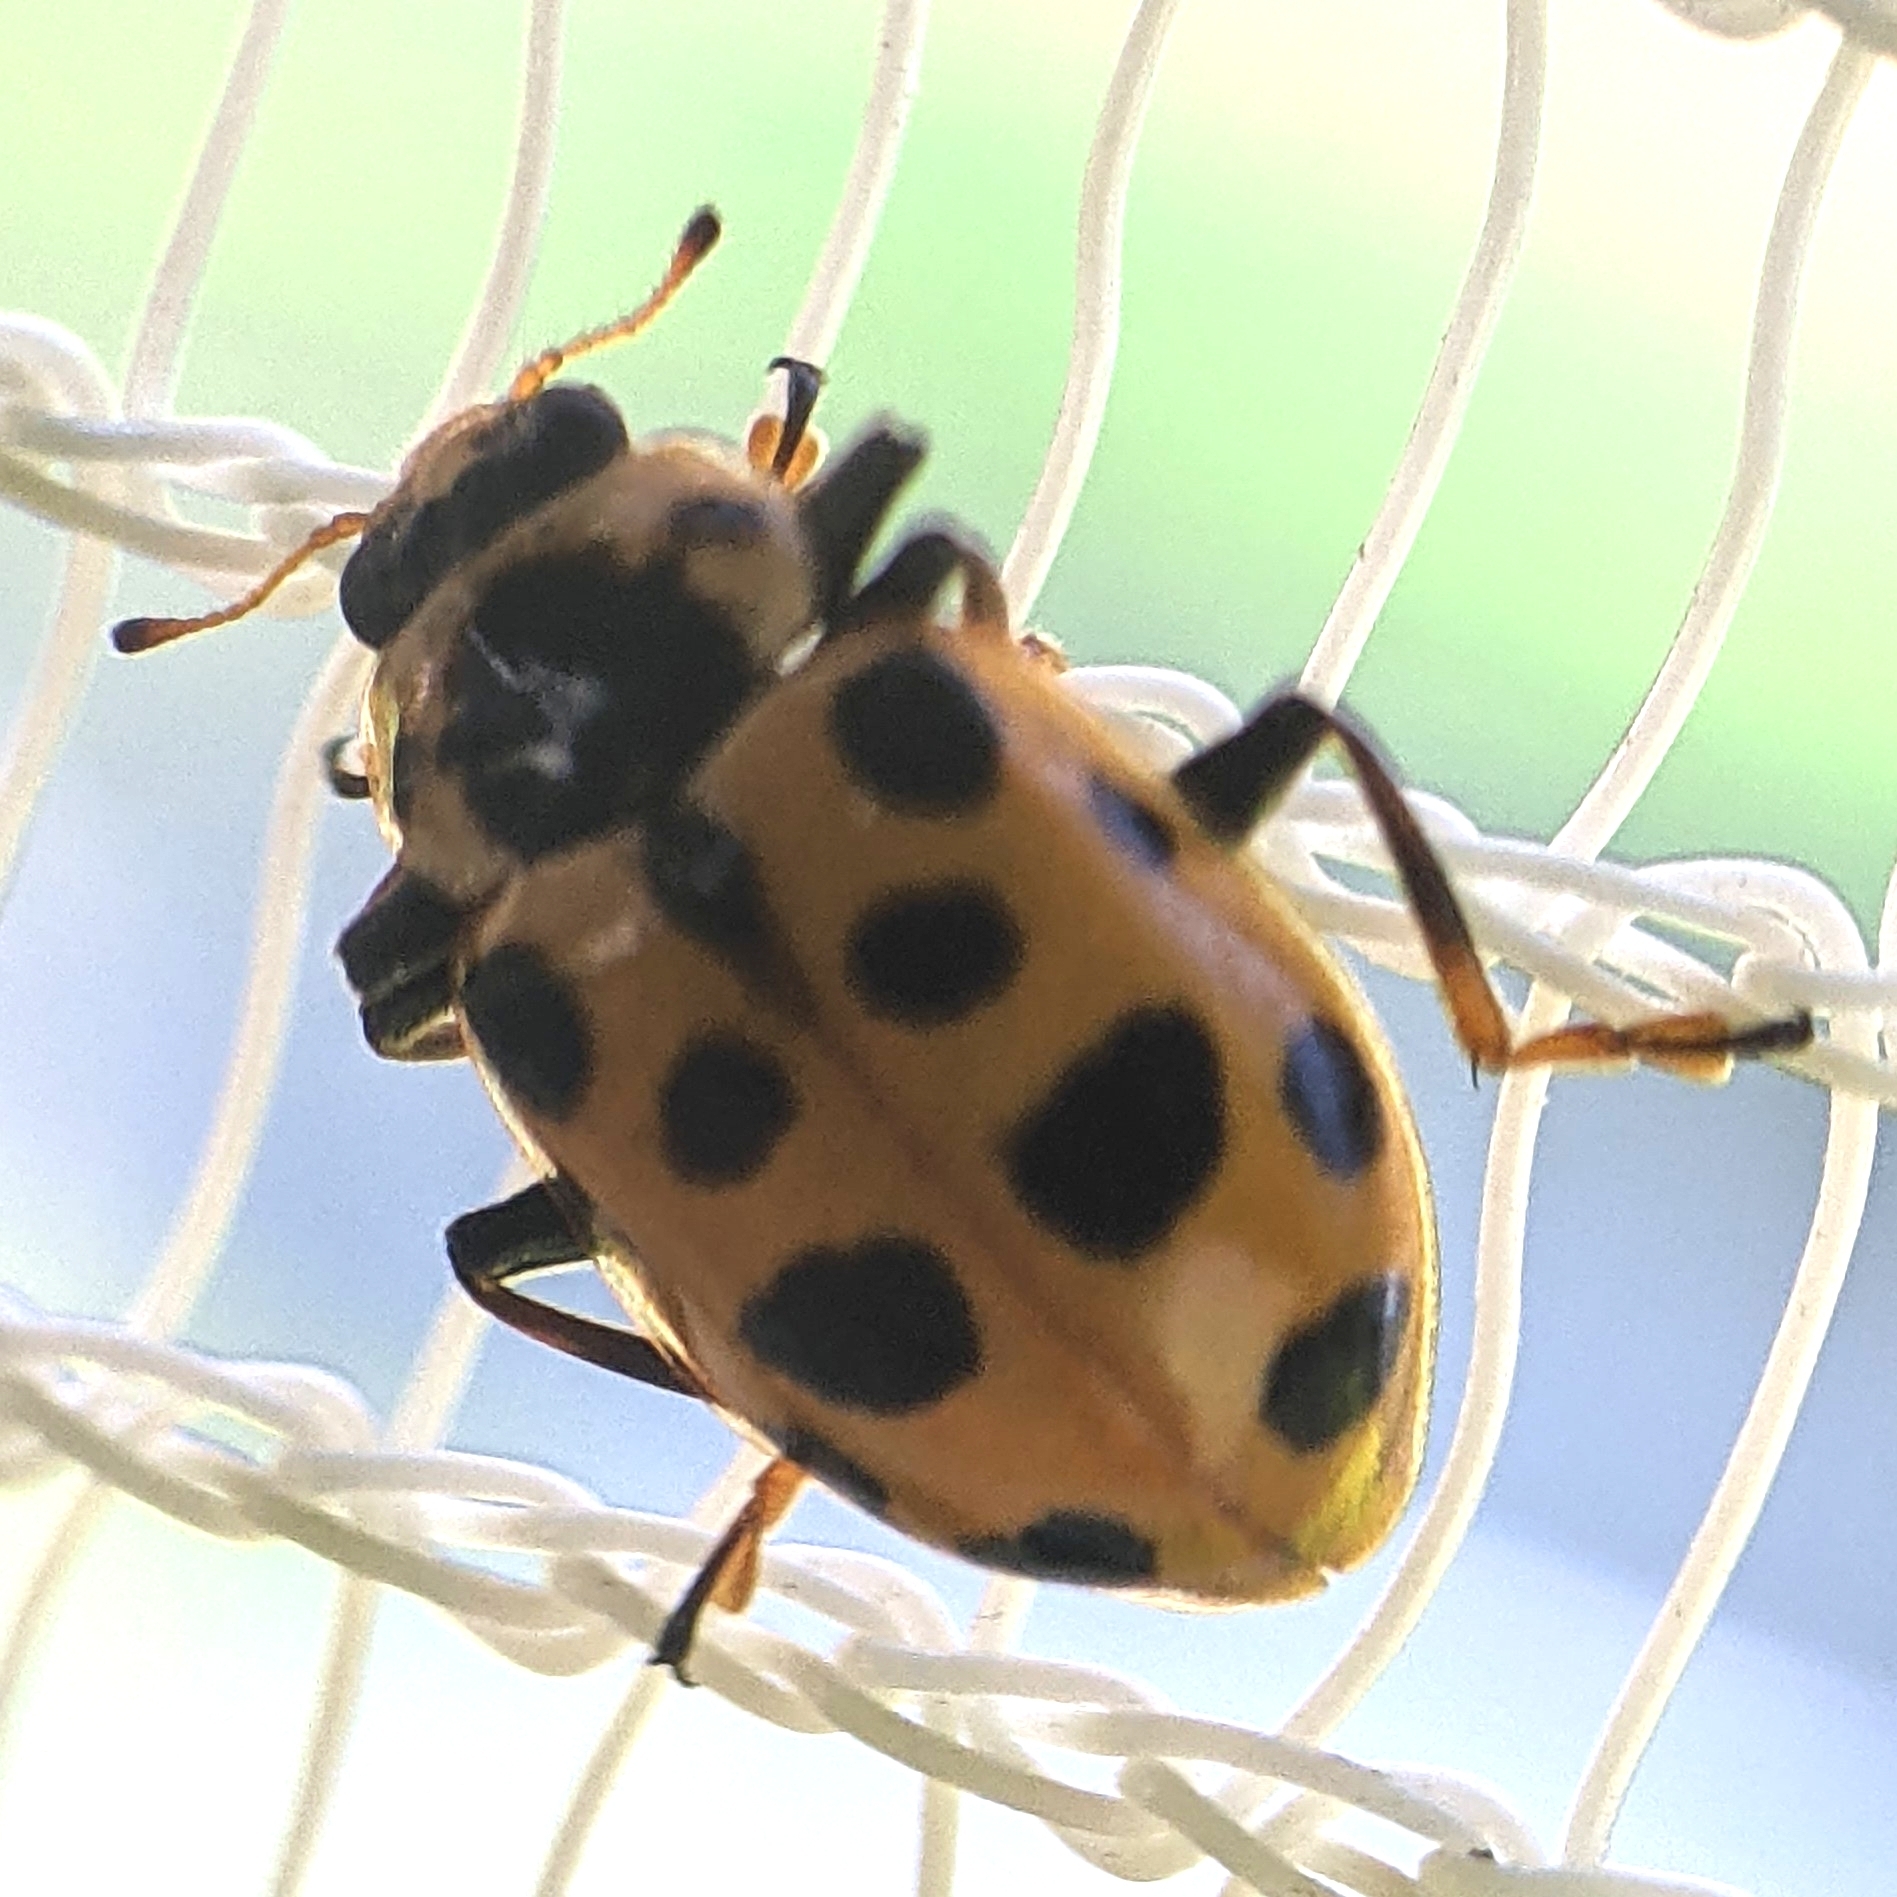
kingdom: Animalia
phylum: Arthropoda
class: Insecta
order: Coleoptera
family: Coccinellidae
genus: Hippodamia
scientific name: Hippodamia tredecimpunctata
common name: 13-spot ladybird
